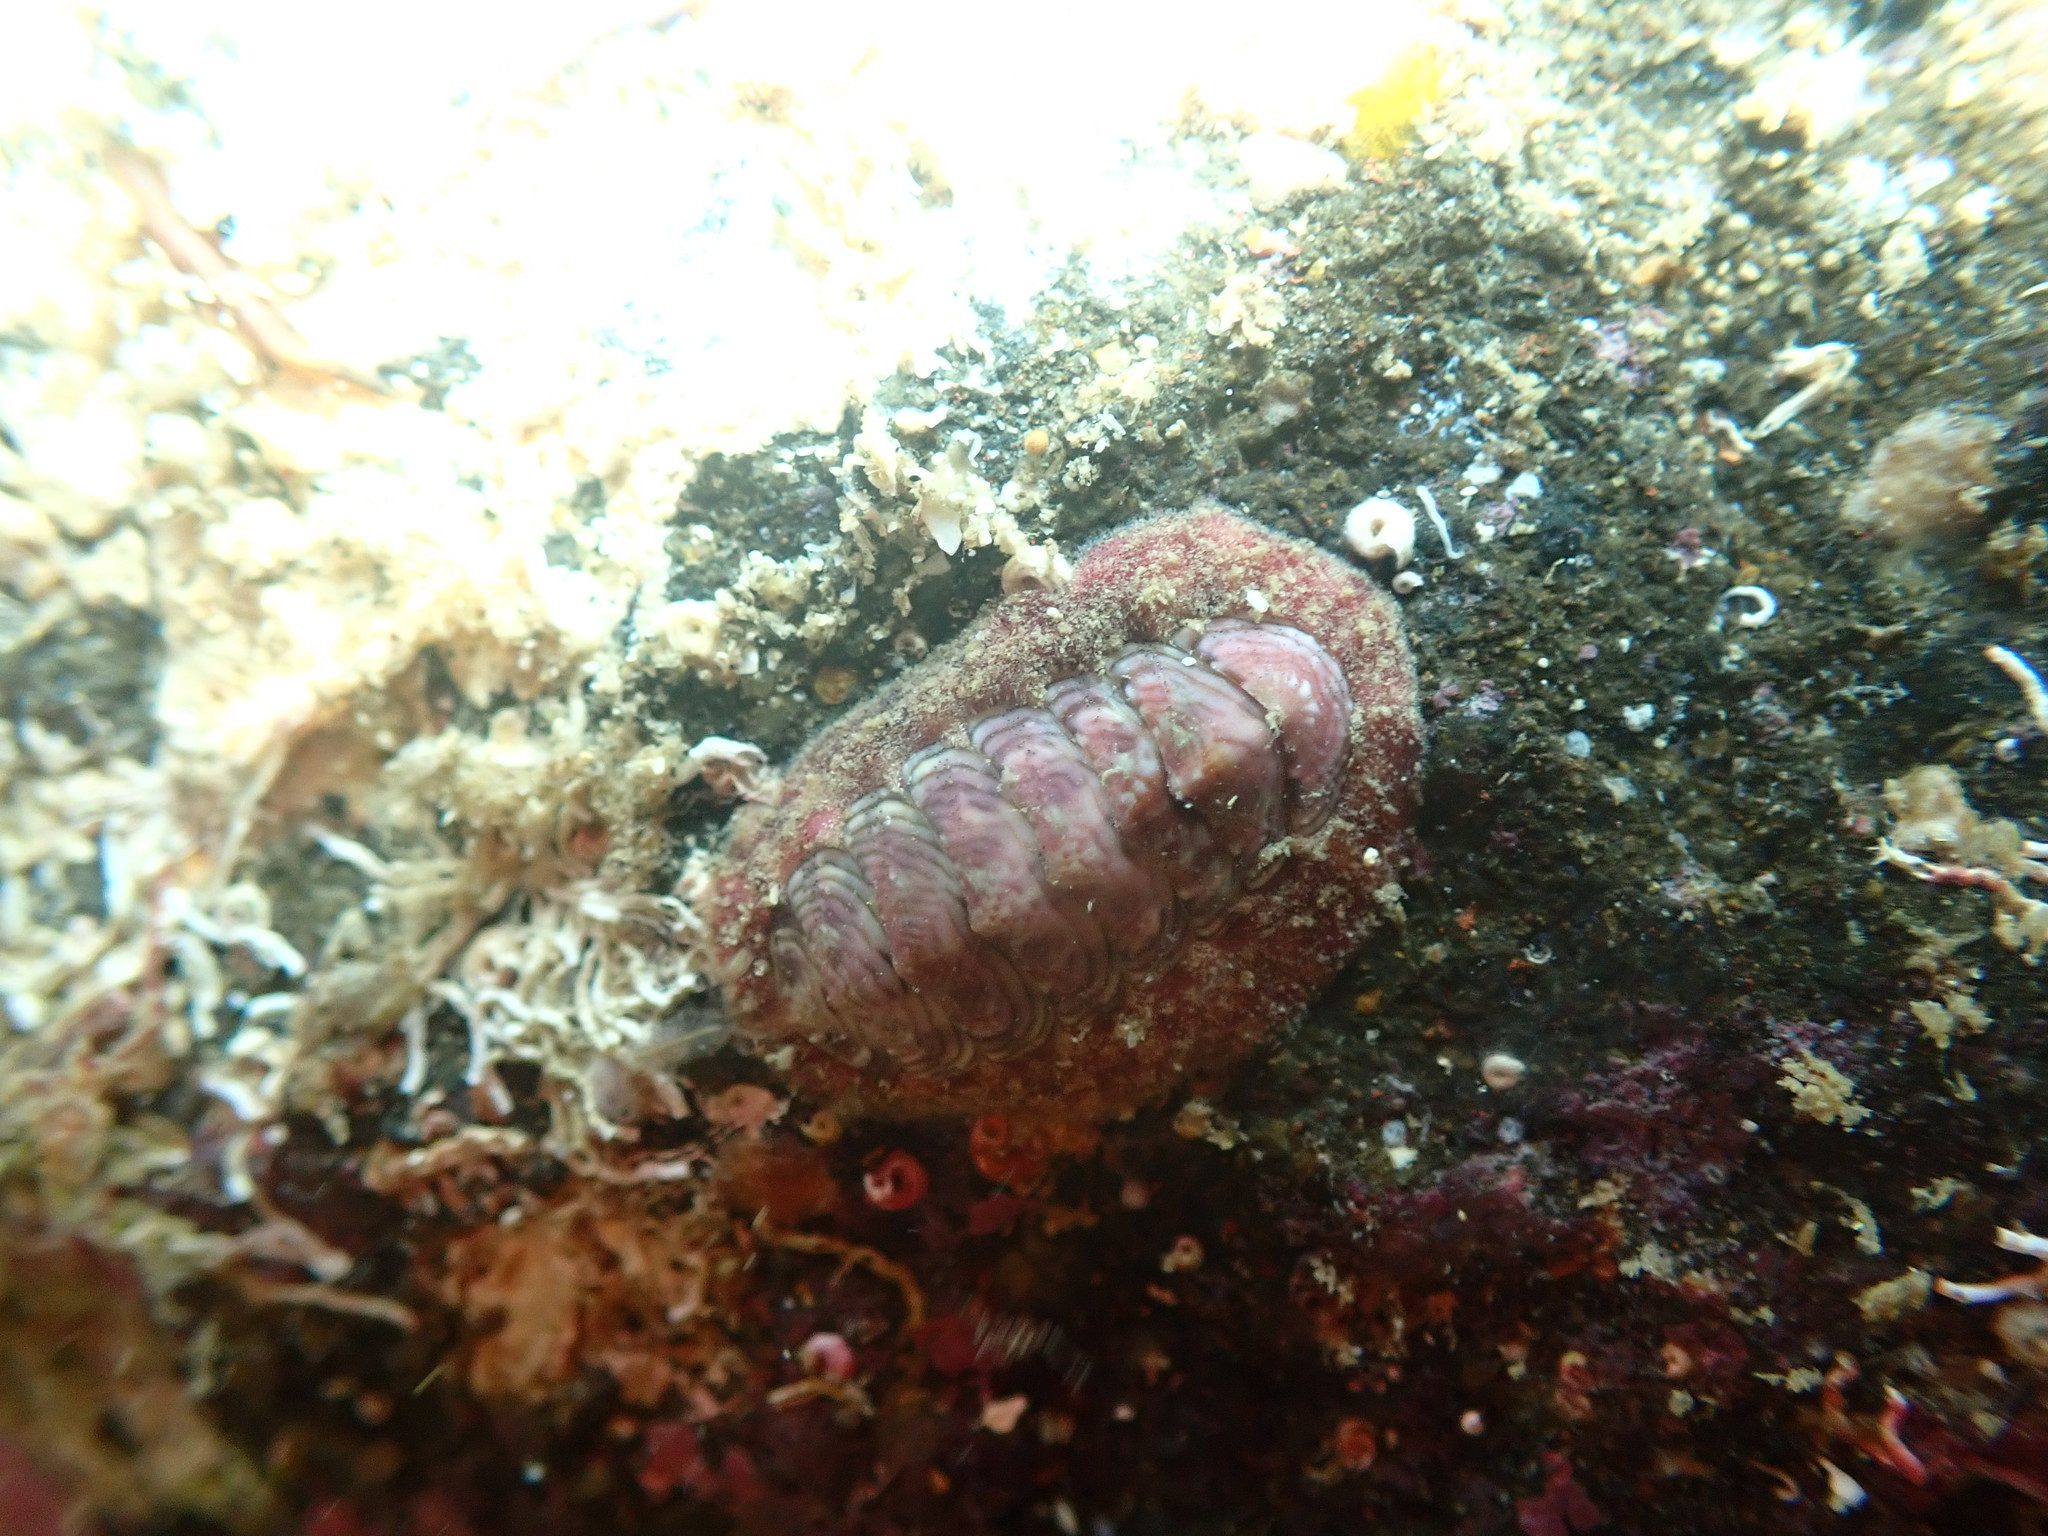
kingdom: Animalia
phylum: Mollusca
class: Polyplacophora
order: Chitonida
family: Chitonidae
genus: Onithochiton
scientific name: Onithochiton neglectus
